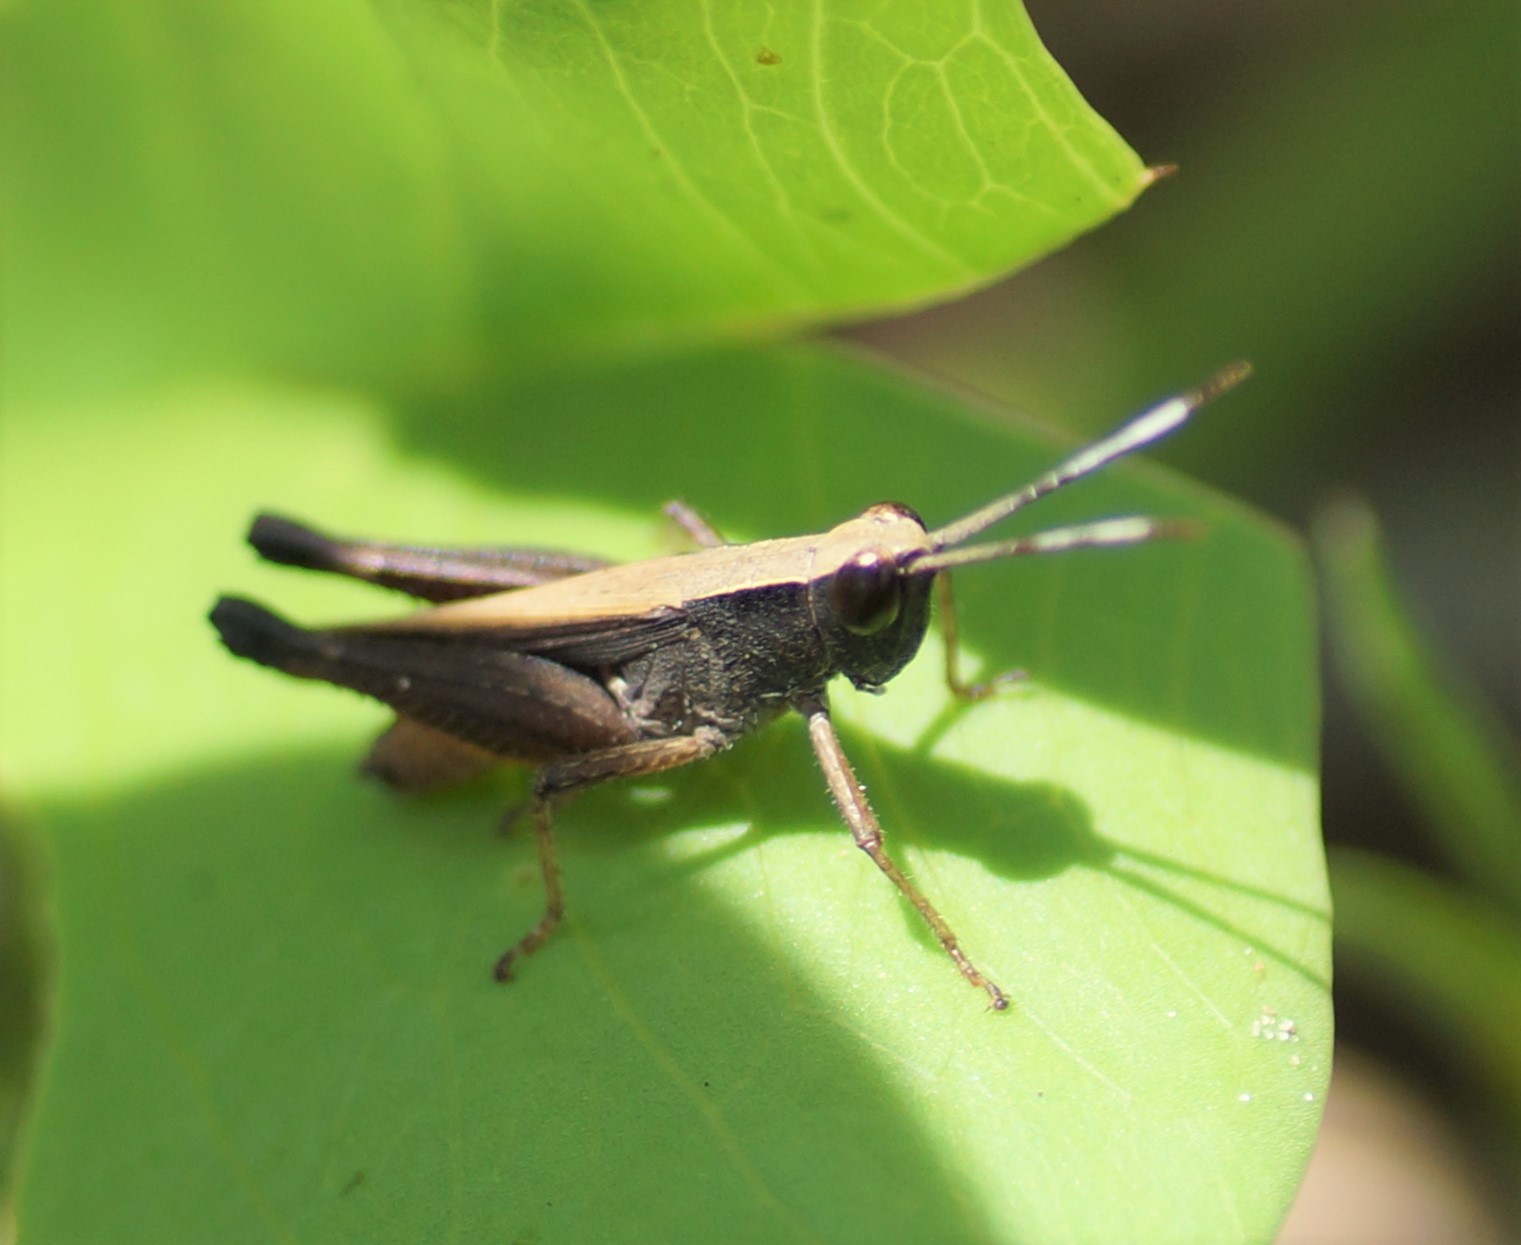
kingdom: Animalia
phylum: Arthropoda
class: Insecta
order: Orthoptera
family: Acrididae
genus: Rectitropis
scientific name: Rectitropis
